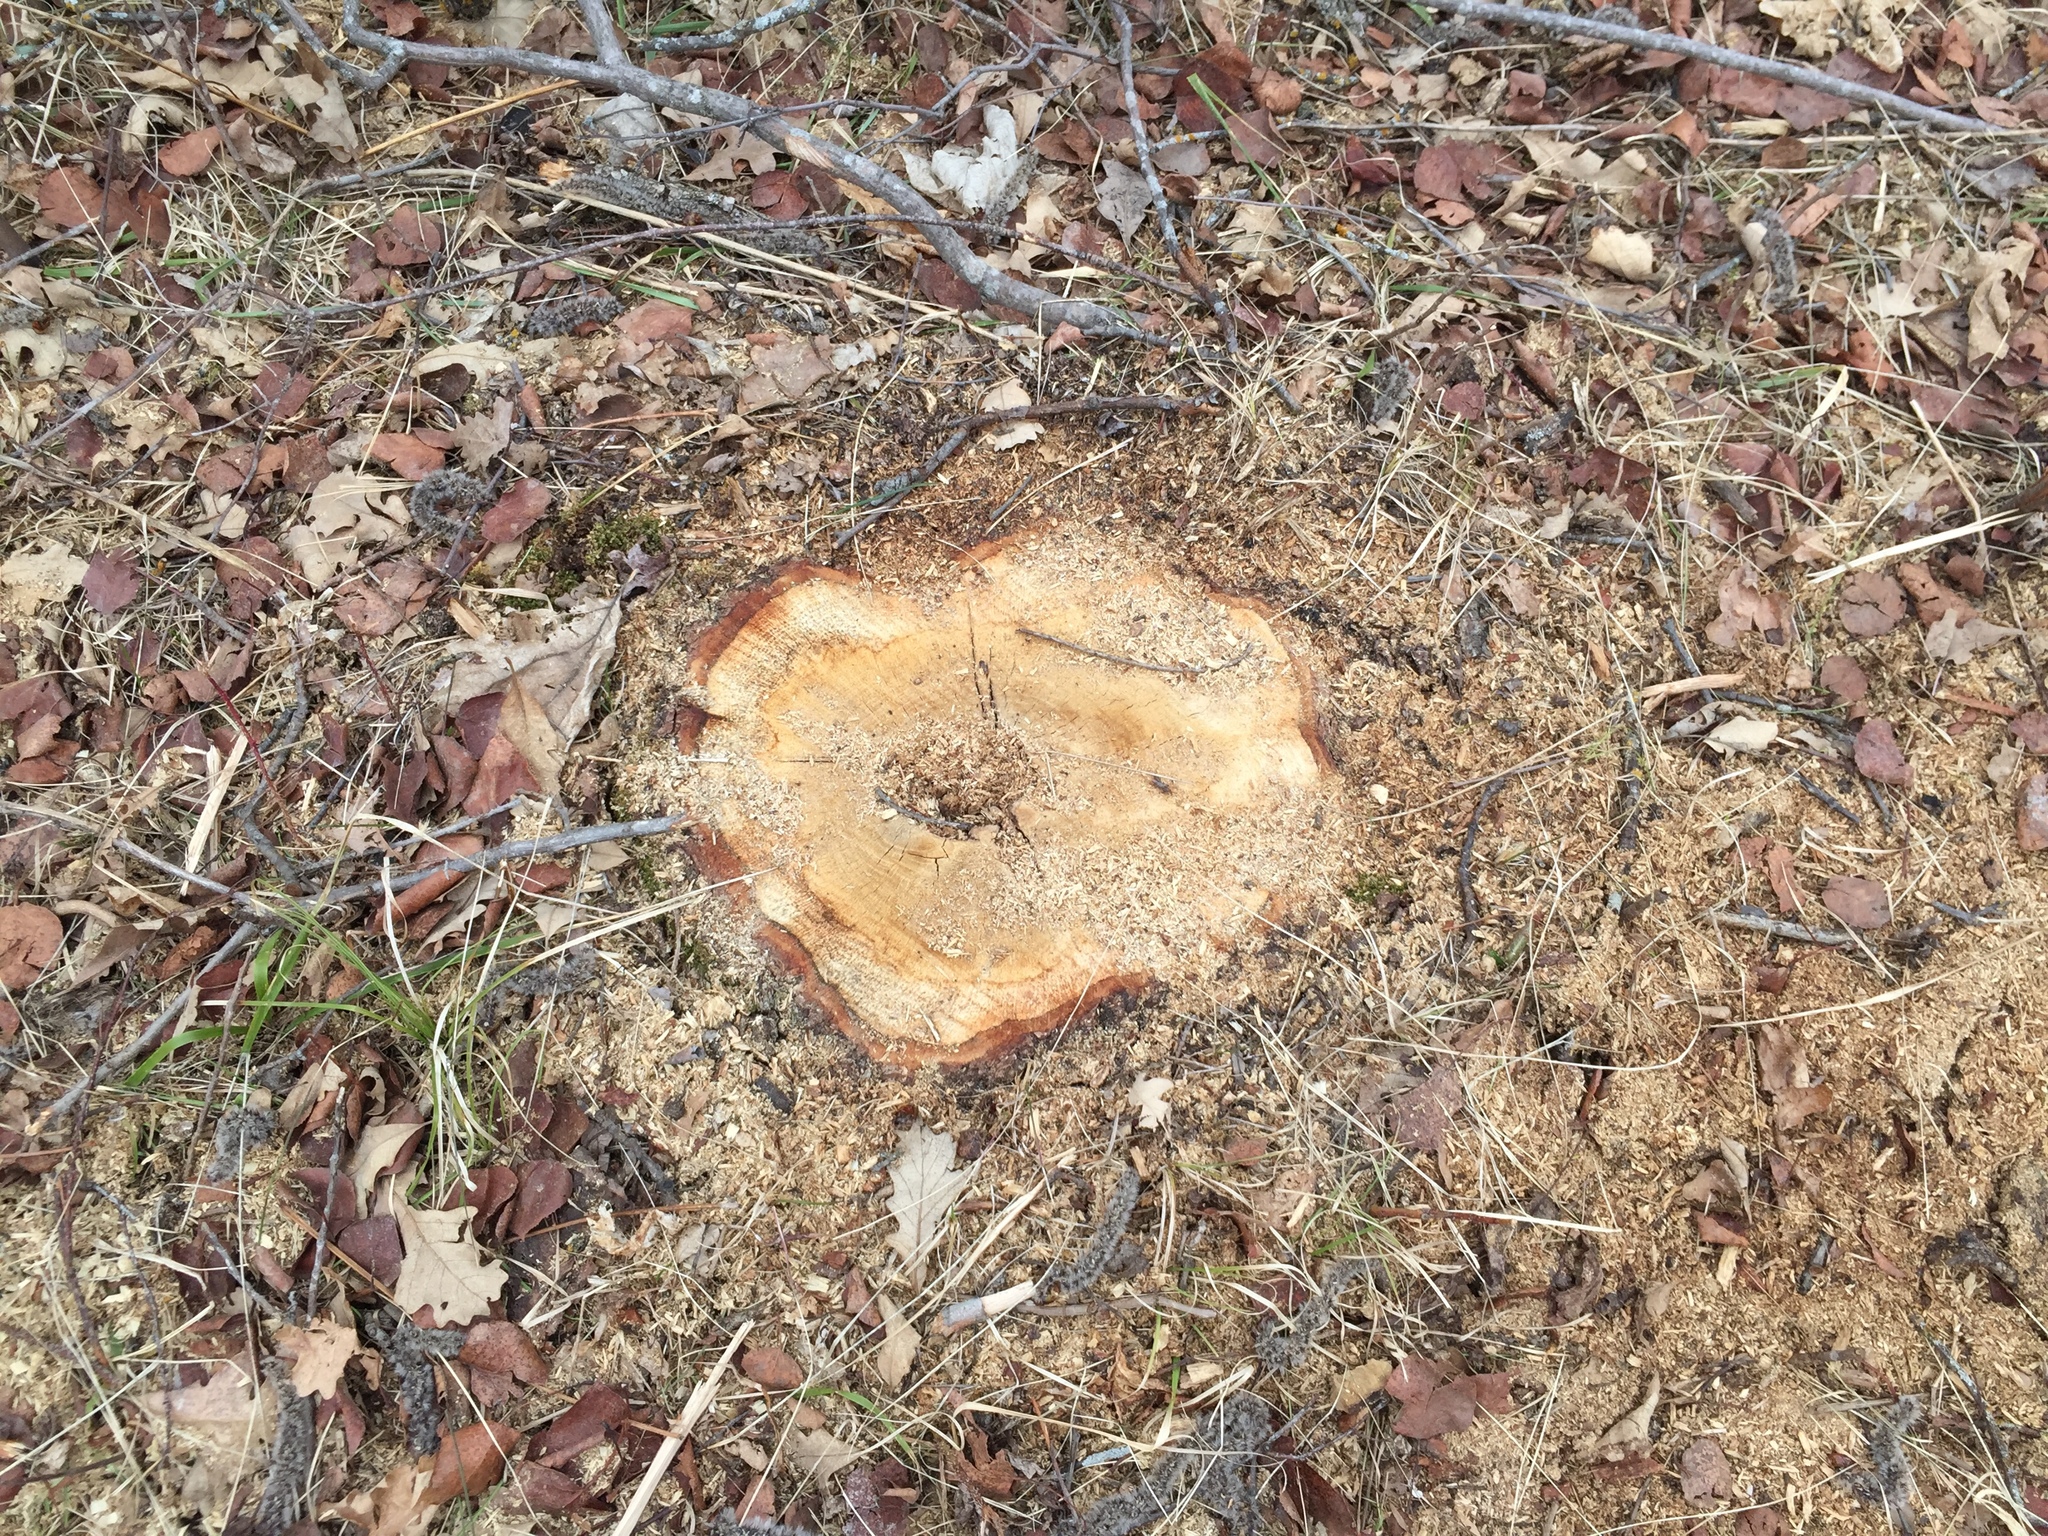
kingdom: Plantae
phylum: Tracheophyta
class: Magnoliopsida
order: Malpighiales
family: Salicaceae
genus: Populus
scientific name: Populus tremuloides
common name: Quaking aspen
